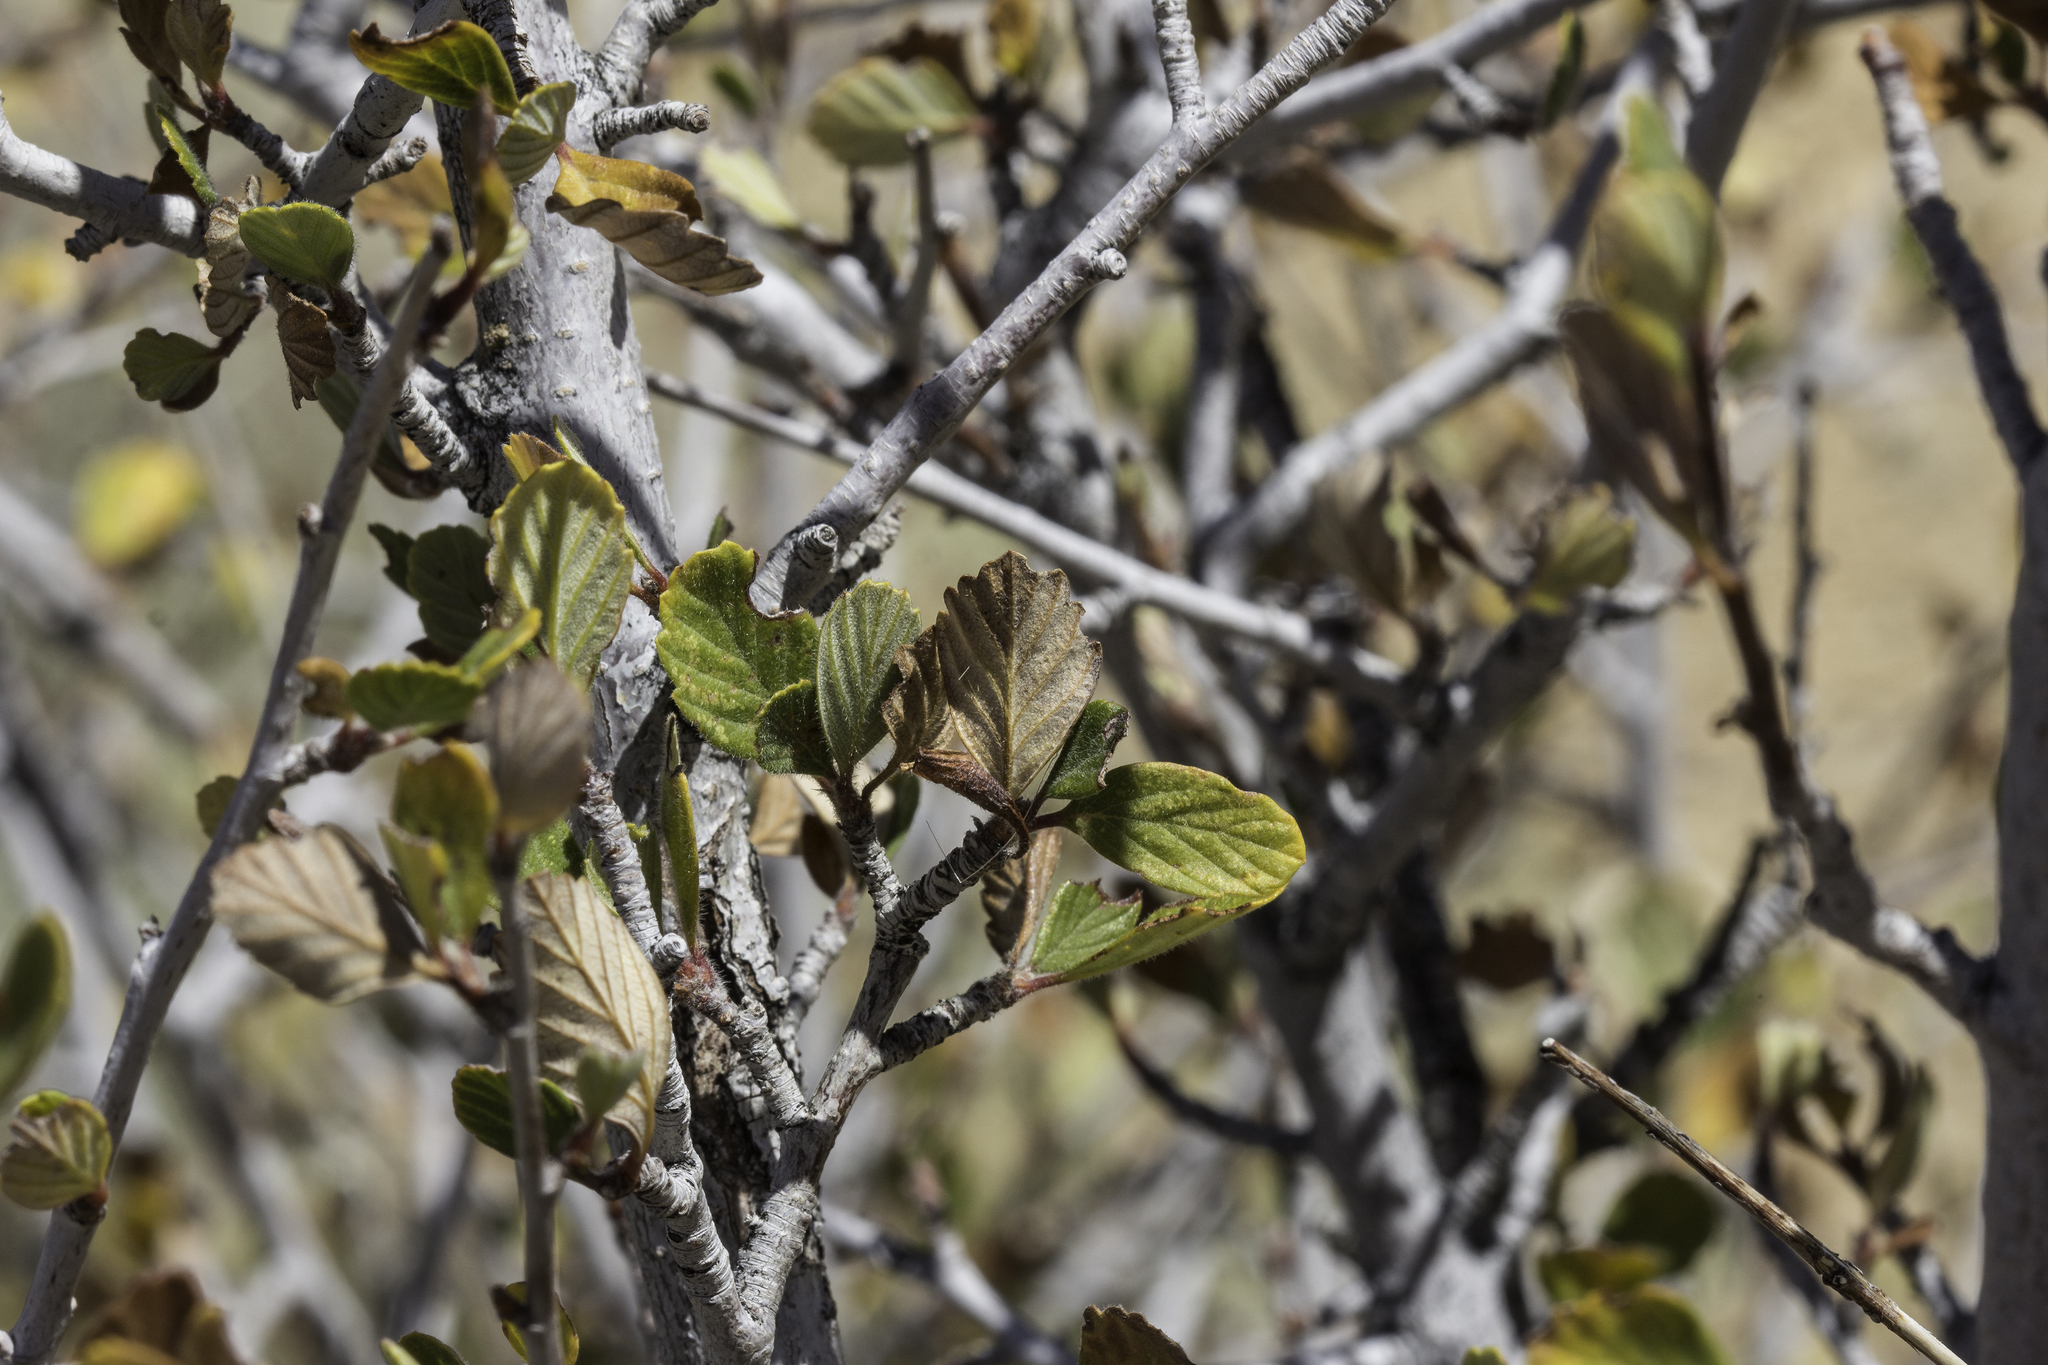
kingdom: Plantae
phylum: Tracheophyta
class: Magnoliopsida
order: Rosales
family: Rosaceae
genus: Cercocarpus
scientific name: Cercocarpus montanus
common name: Alder-leaf cercocarpus
